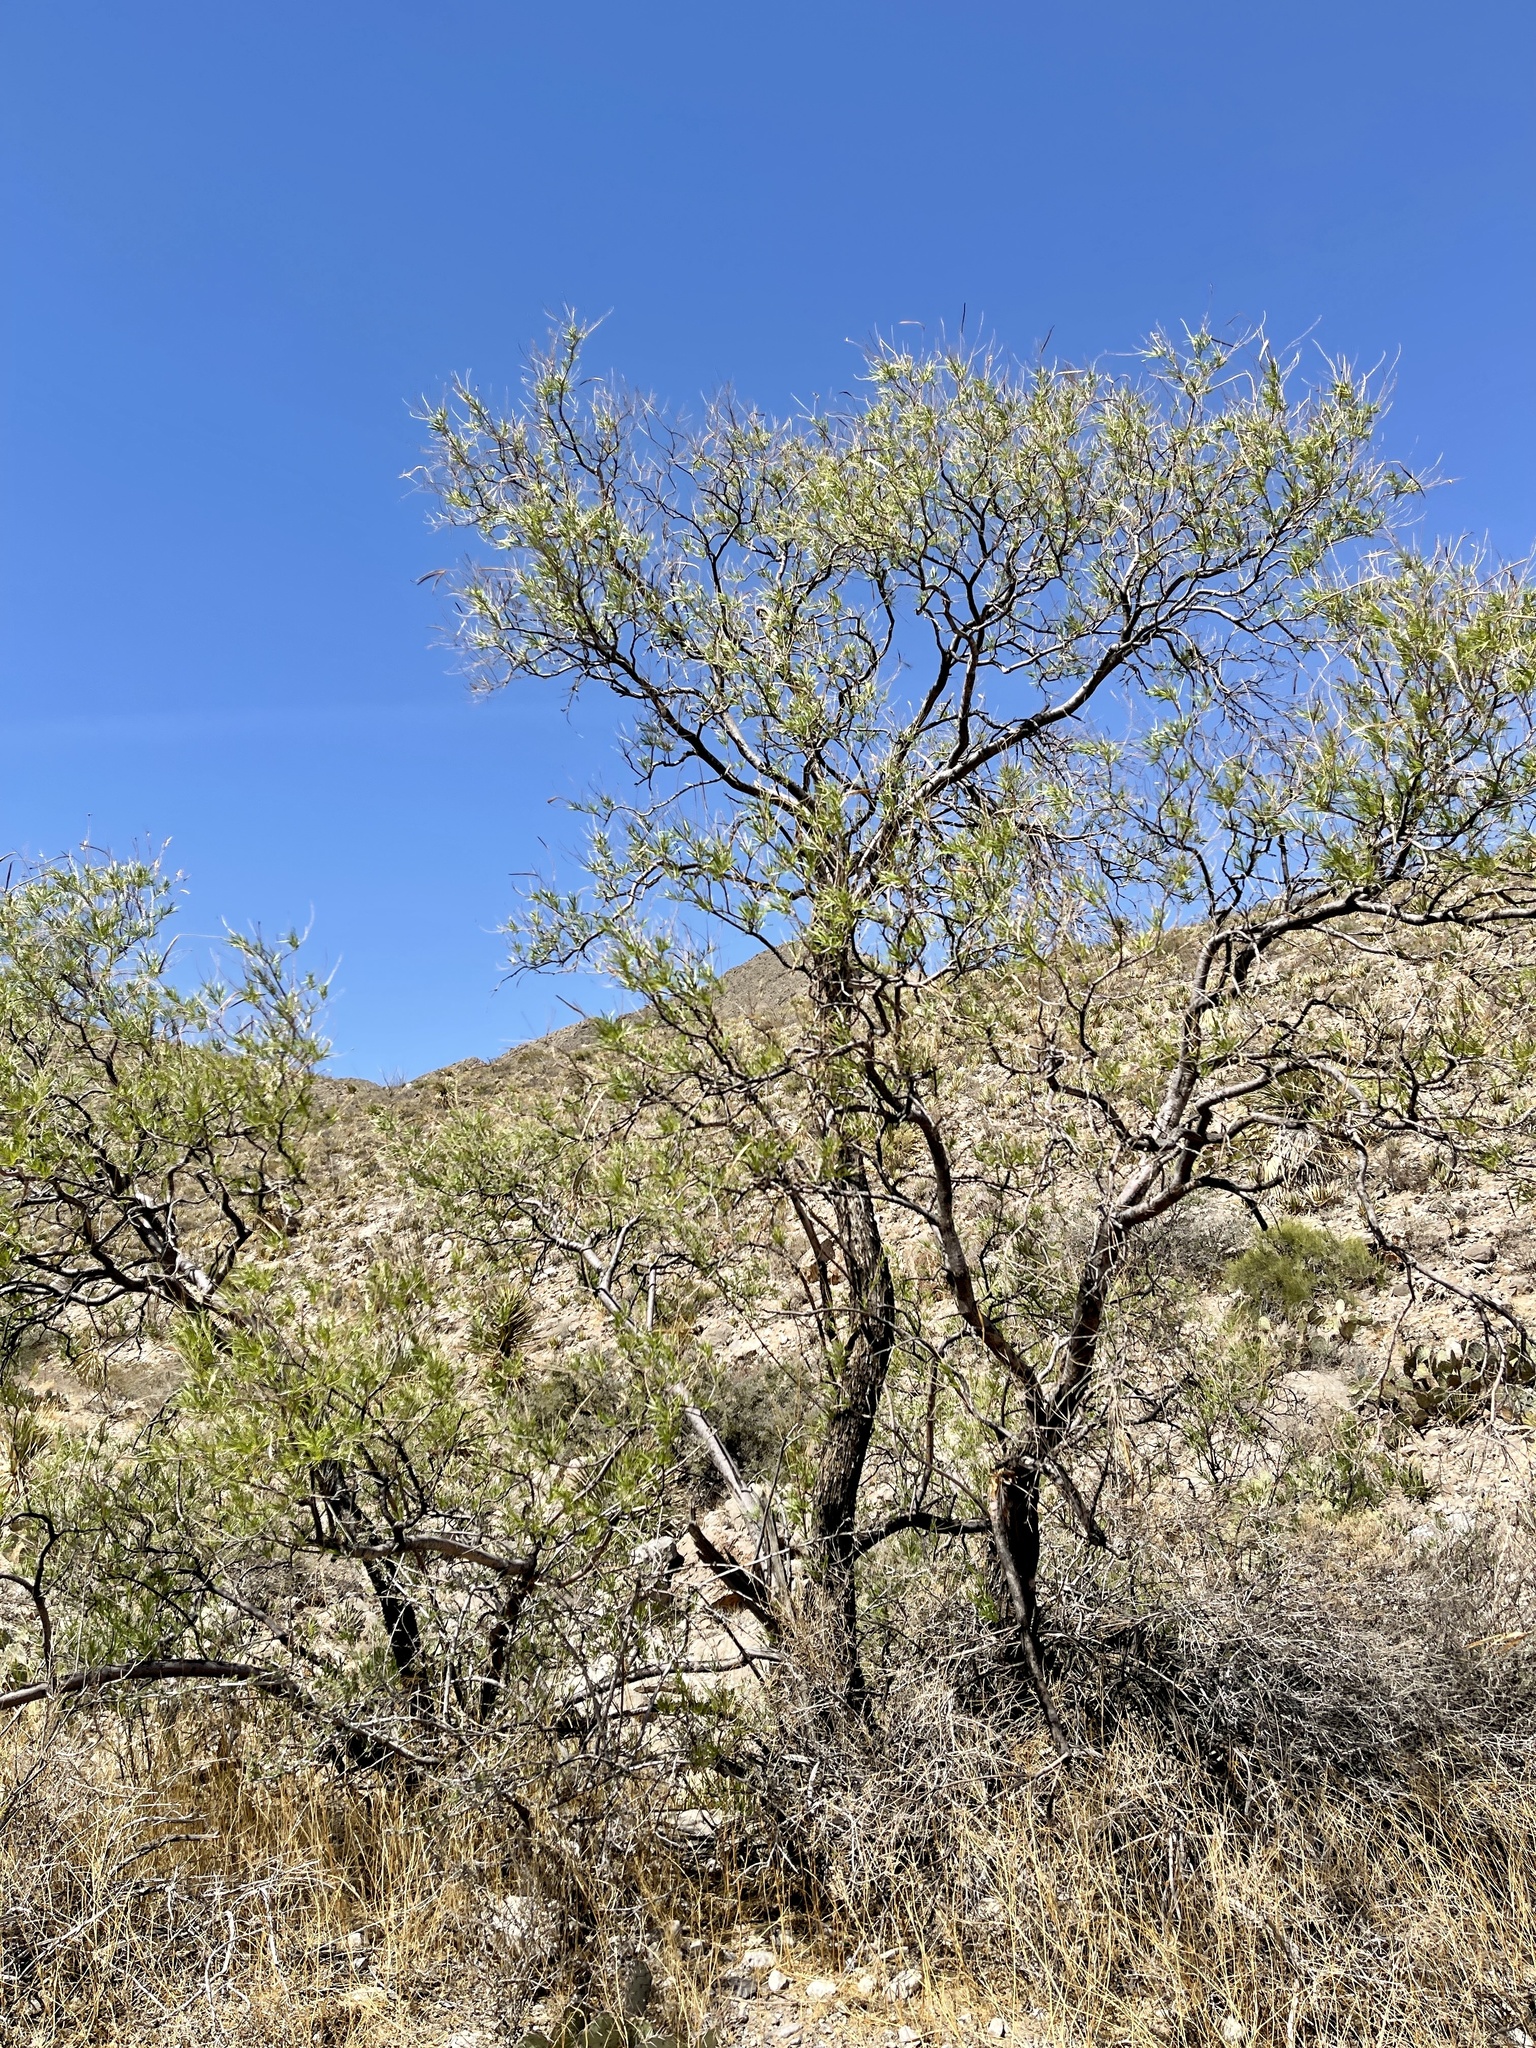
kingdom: Plantae
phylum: Tracheophyta
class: Magnoliopsida
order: Lamiales
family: Bignoniaceae
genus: Chilopsis
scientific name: Chilopsis linearis
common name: Desert-willow
